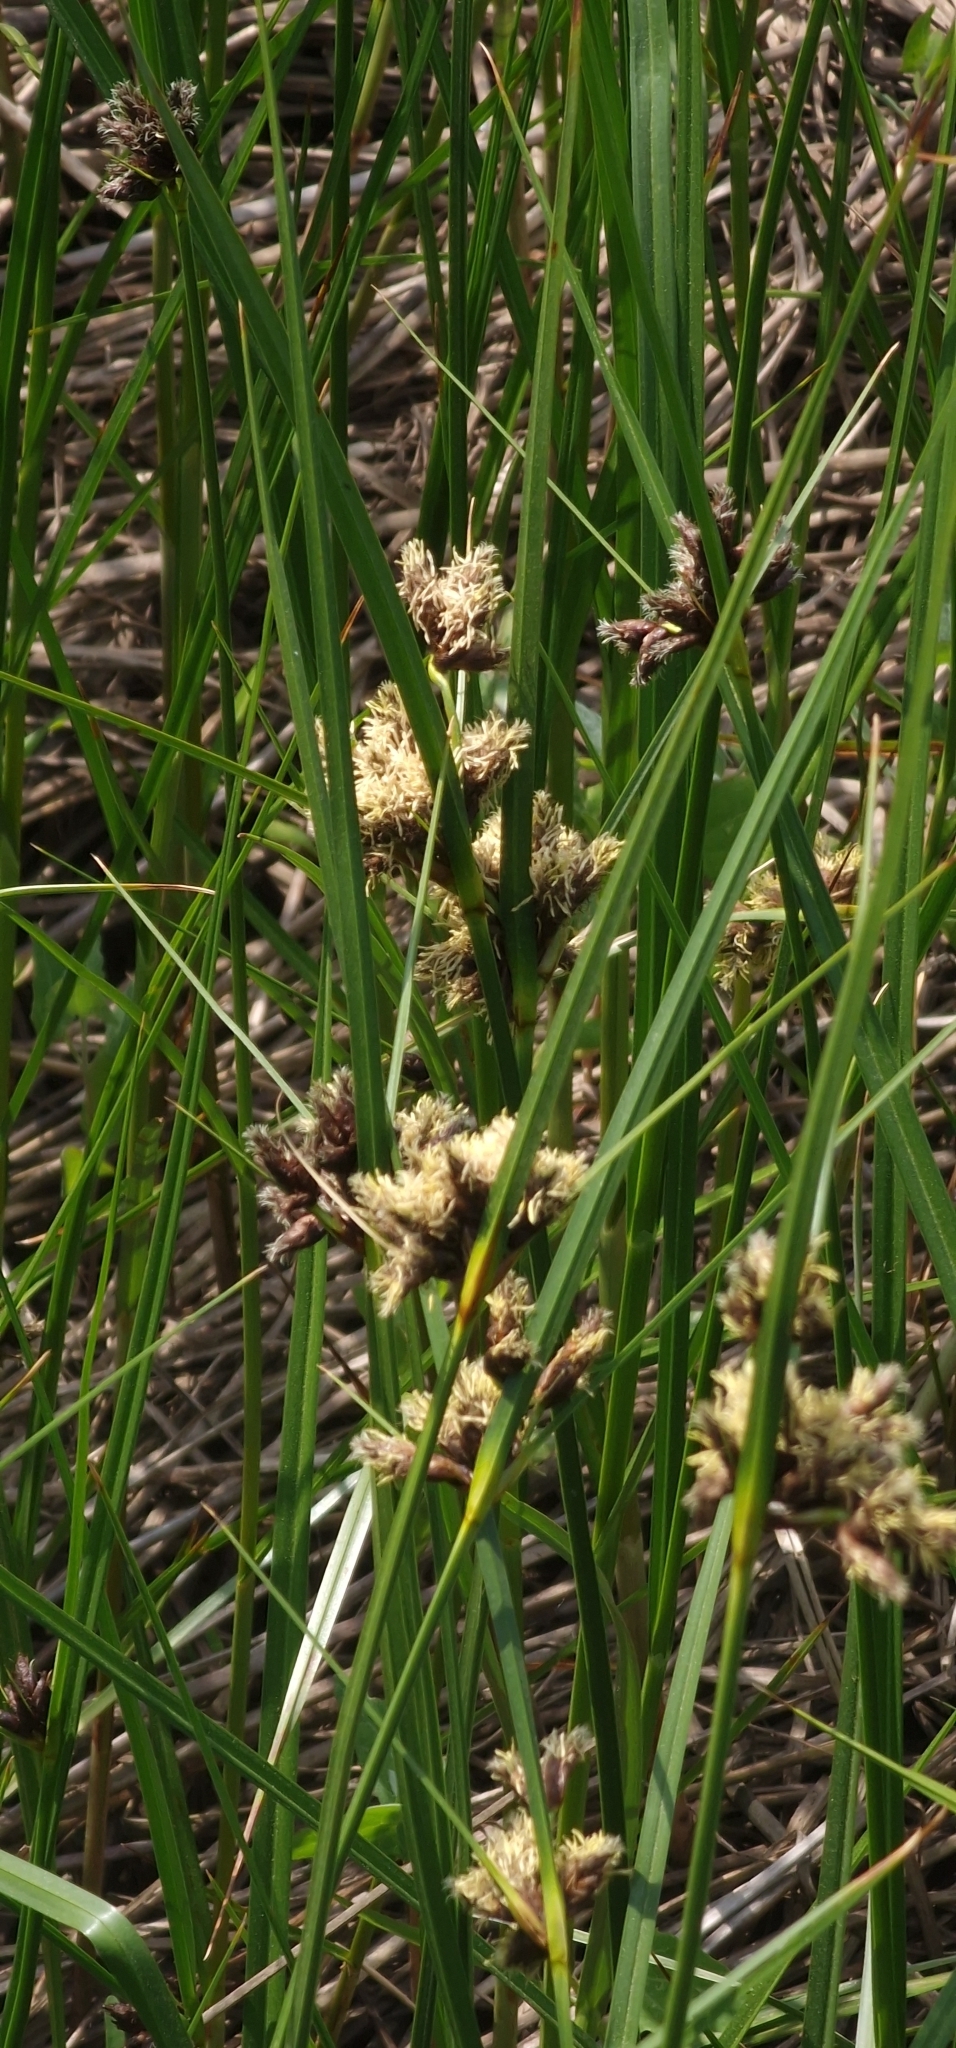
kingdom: Plantae
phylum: Tracheophyta
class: Liliopsida
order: Poales
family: Cyperaceae
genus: Bolboschoenus
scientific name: Bolboschoenus maritimus
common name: Sea club-rush
